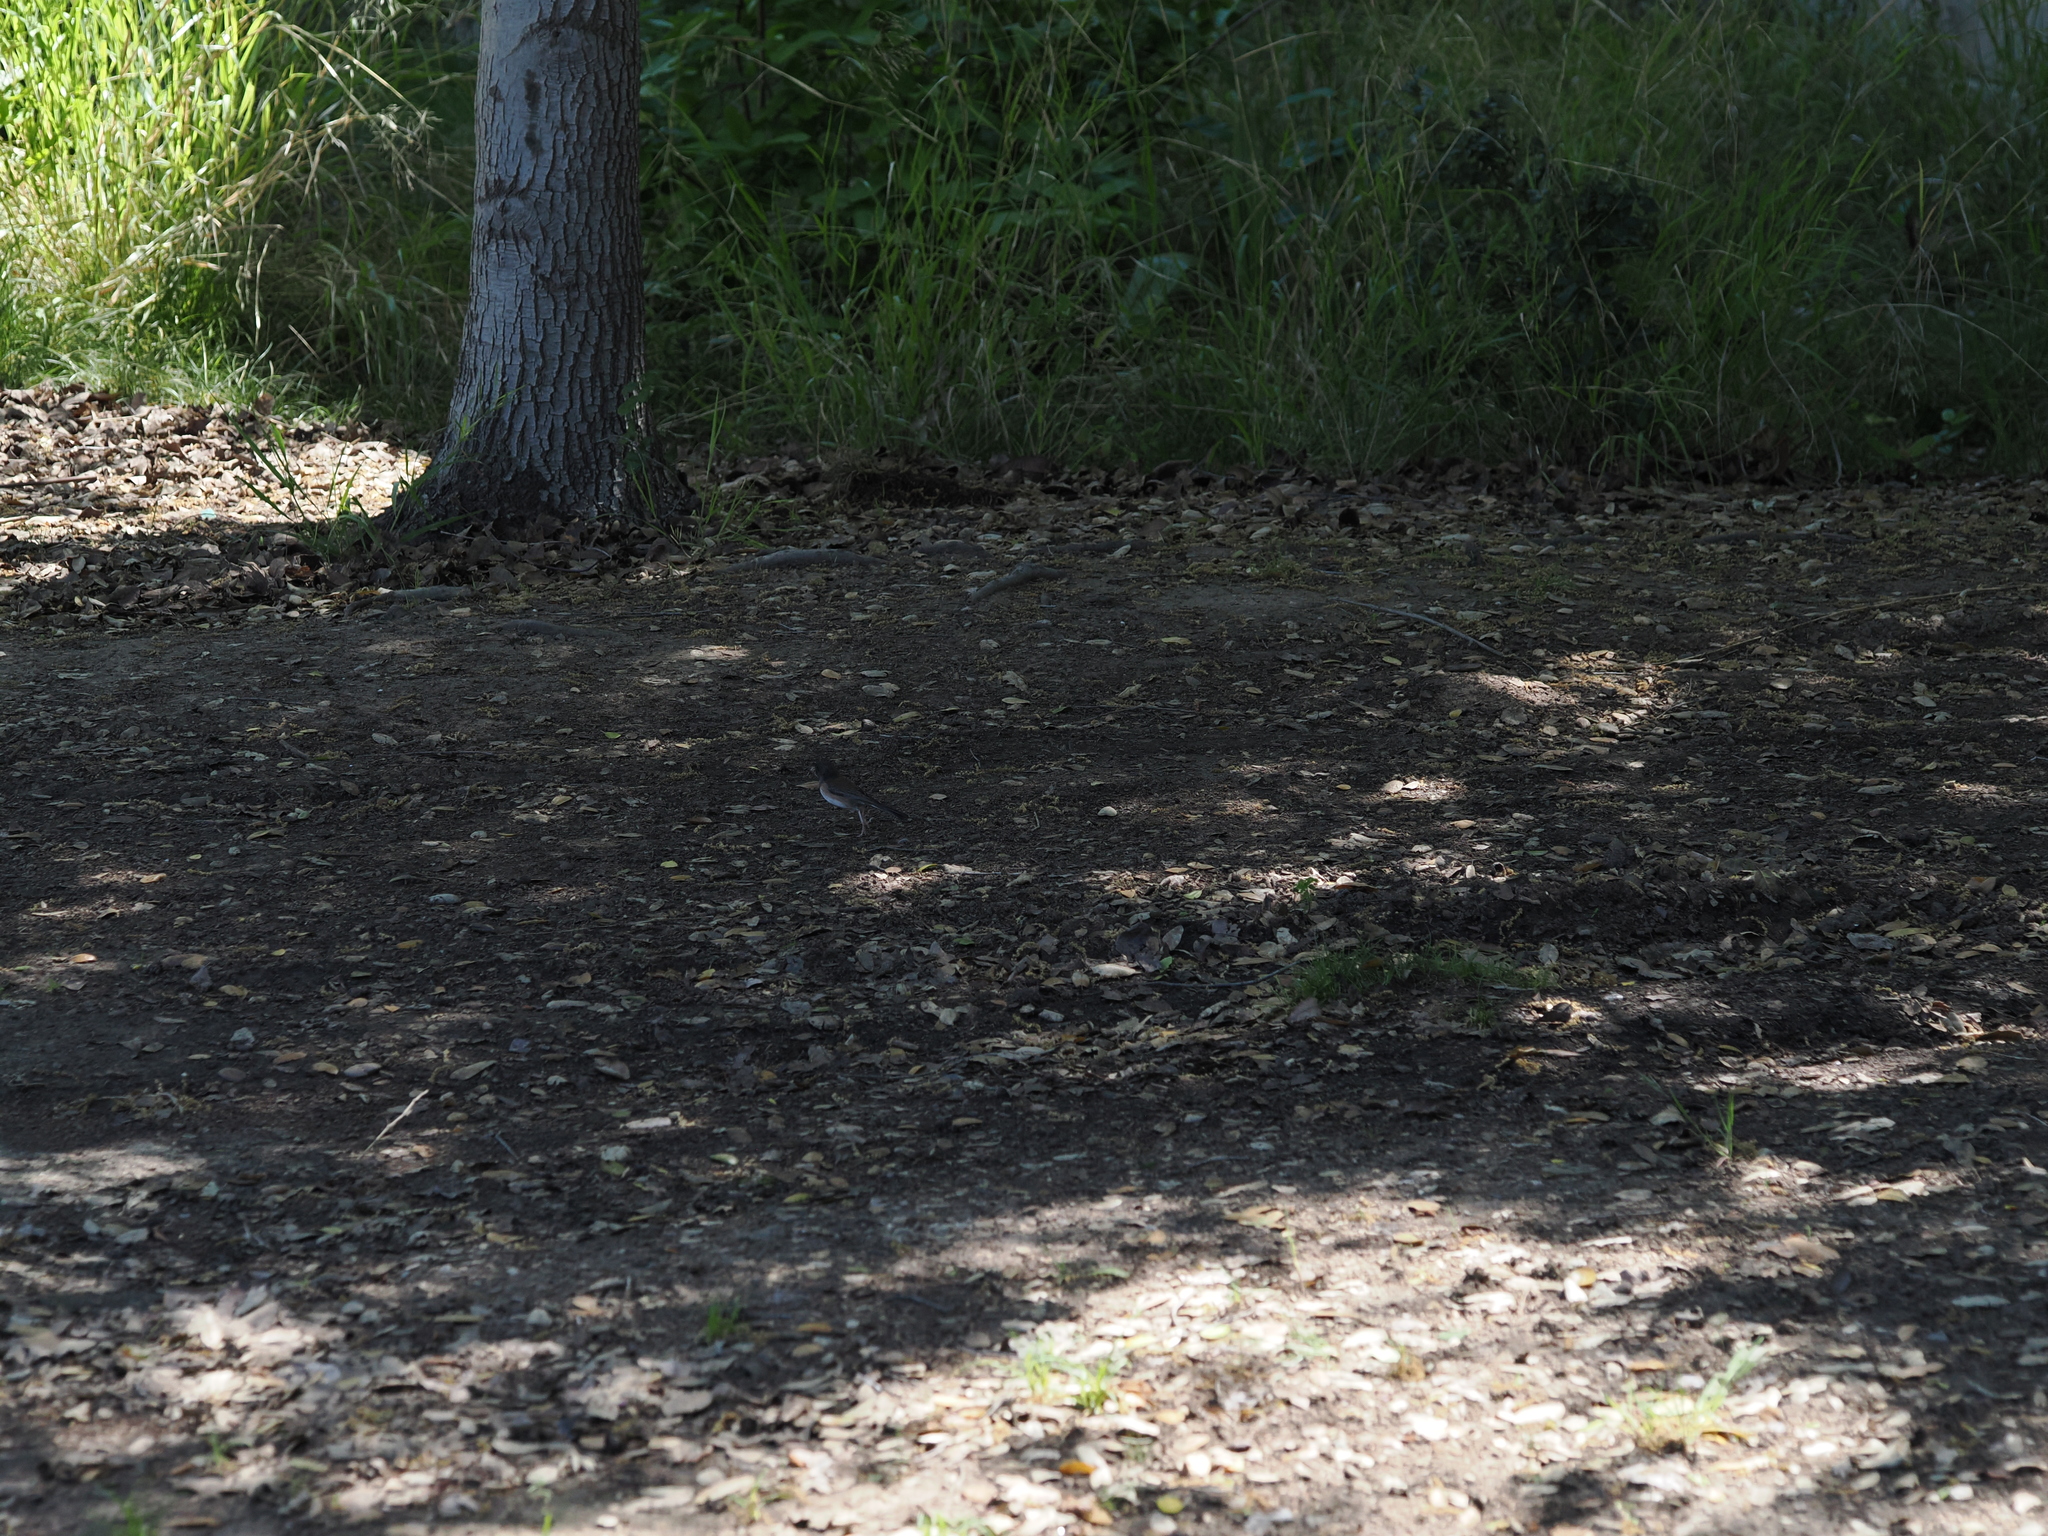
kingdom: Animalia
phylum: Chordata
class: Aves
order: Passeriformes
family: Passerellidae
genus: Junco
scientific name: Junco hyemalis
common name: Dark-eyed junco
